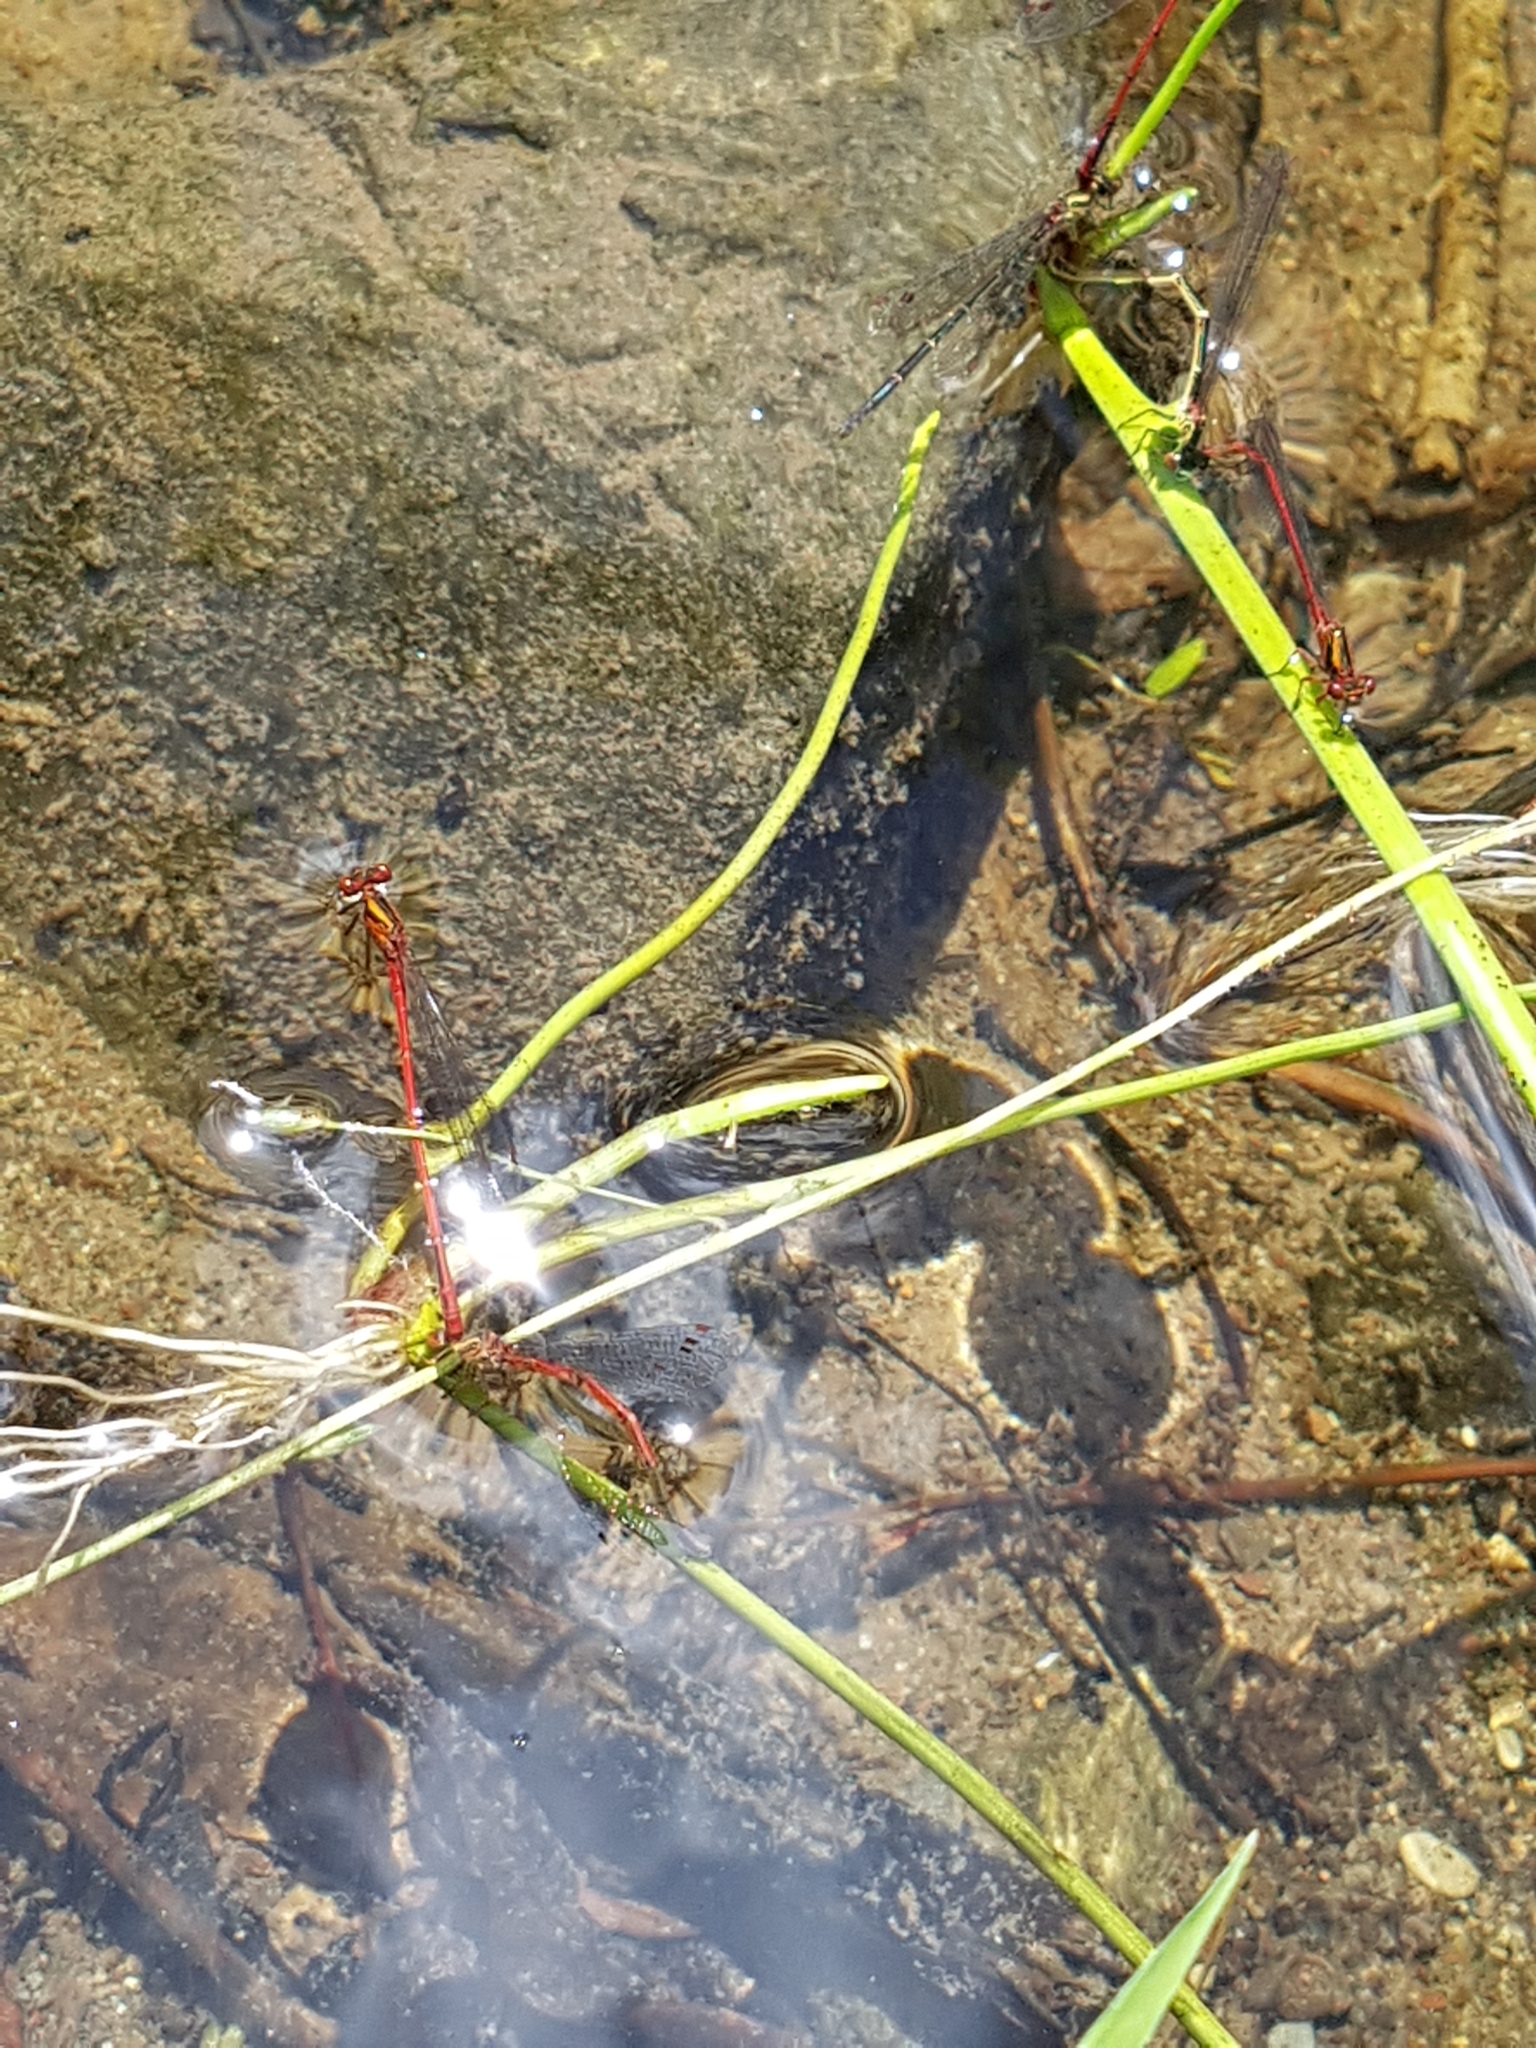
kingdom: Animalia
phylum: Arthropoda
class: Insecta
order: Odonata
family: Coenagrionidae
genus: Xanthocnemis
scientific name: Xanthocnemis zealandica
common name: Common redcoat damselfly
